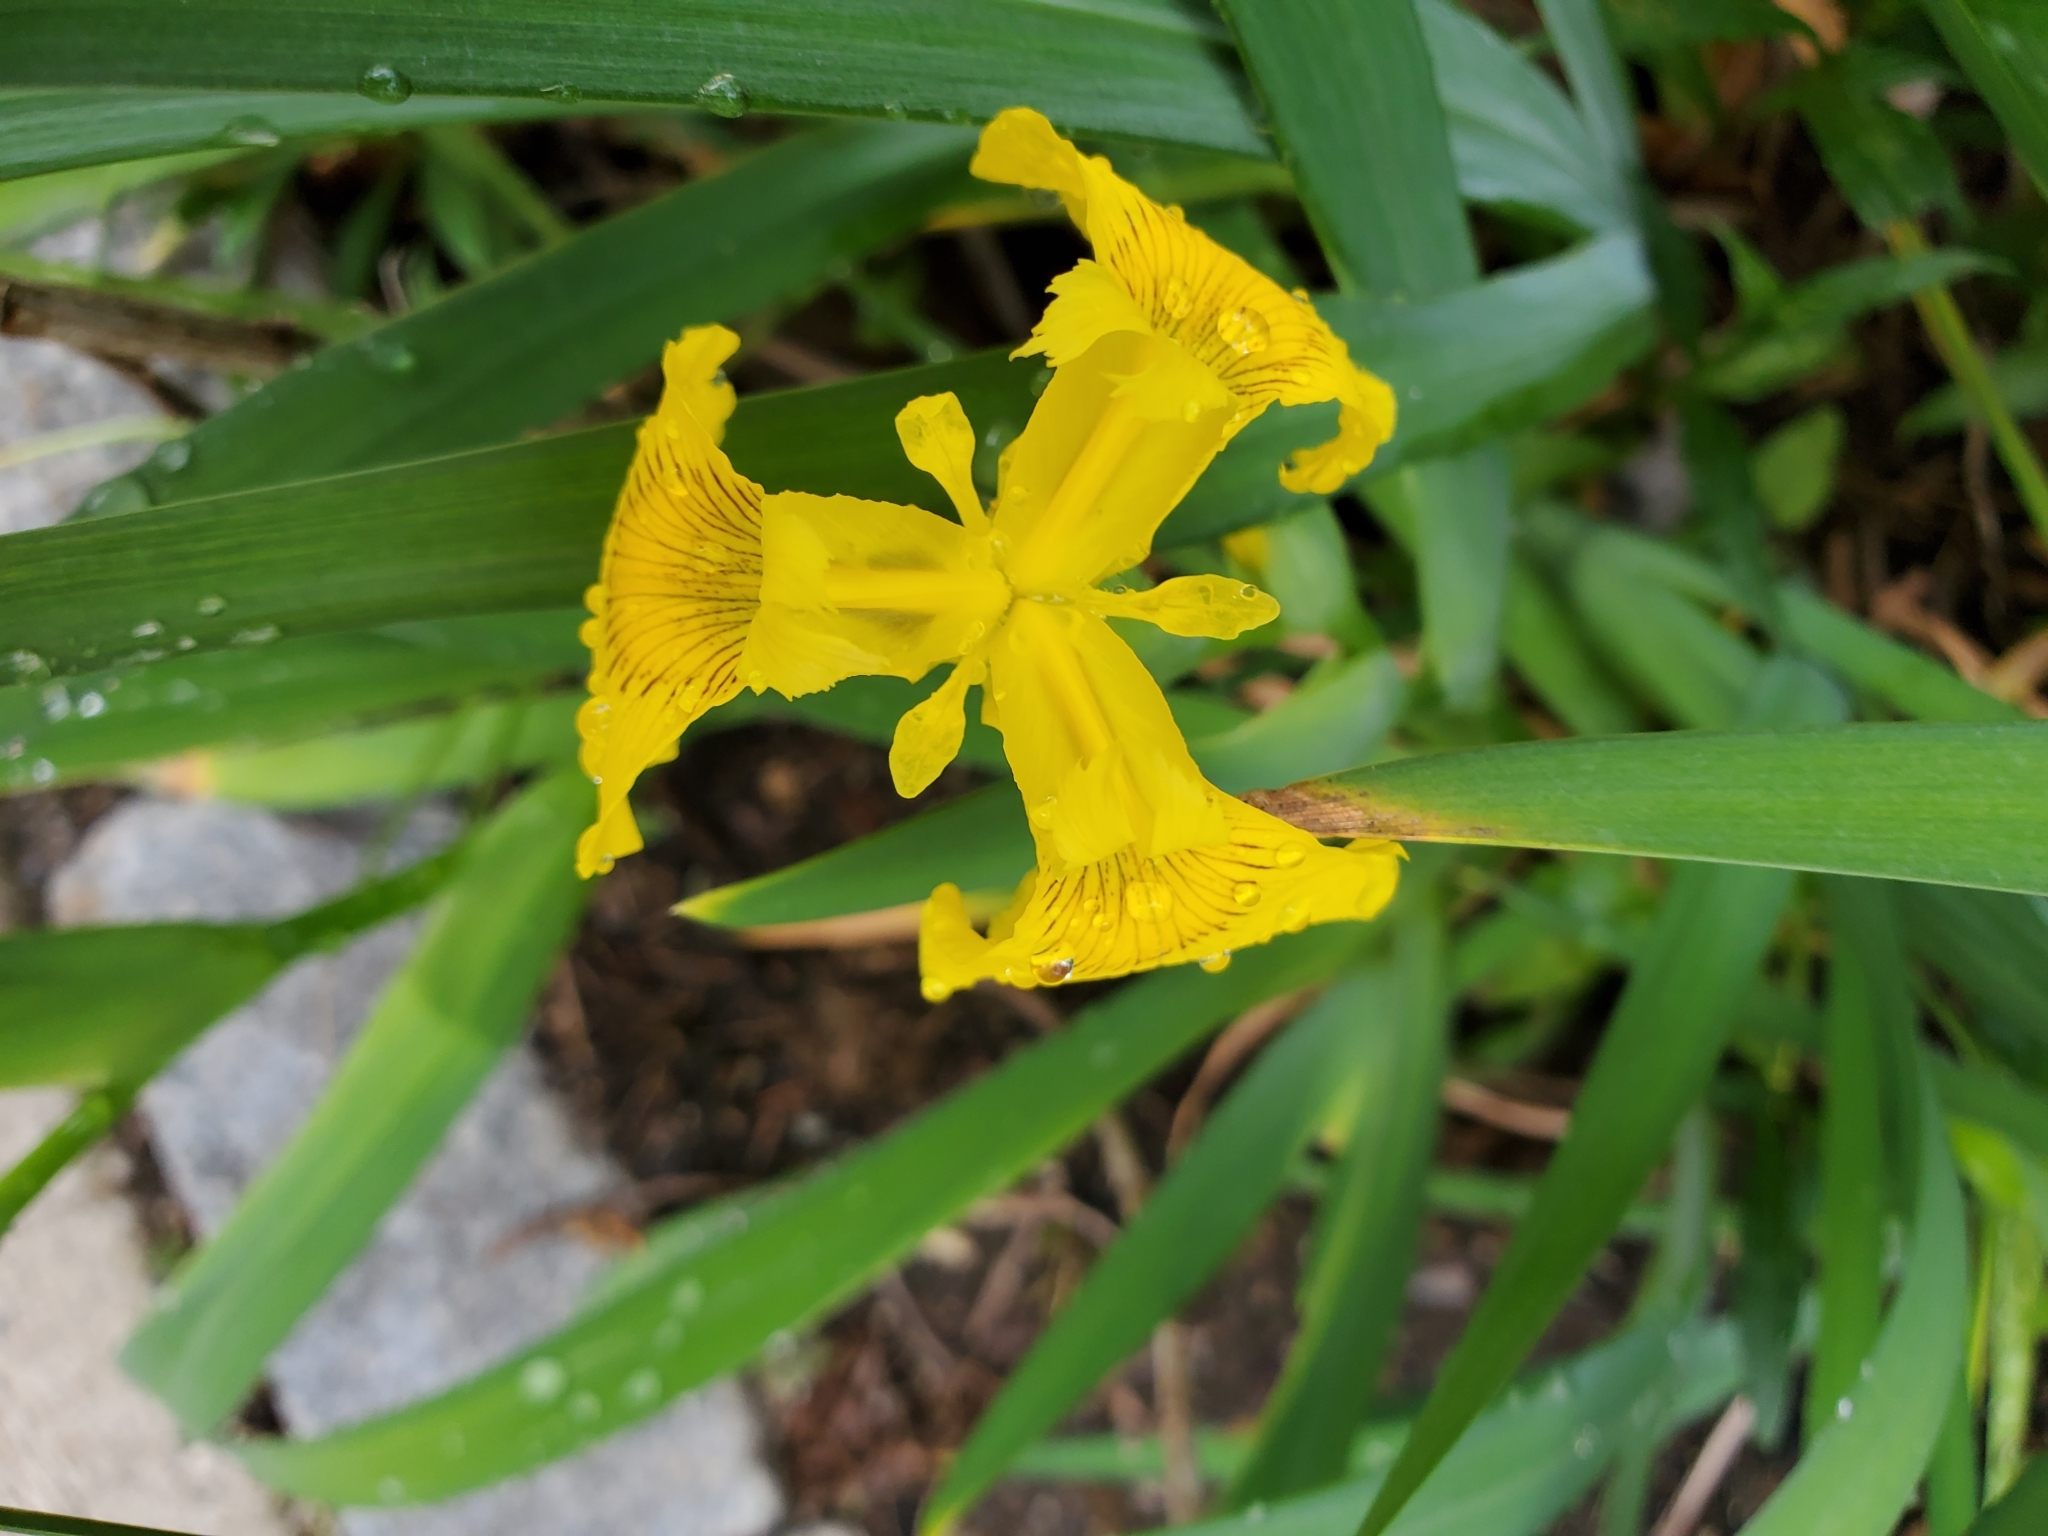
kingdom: Plantae
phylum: Tracheophyta
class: Liliopsida
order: Asparagales
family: Iridaceae
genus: Iris
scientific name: Iris pseudacorus
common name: Yellow flag
